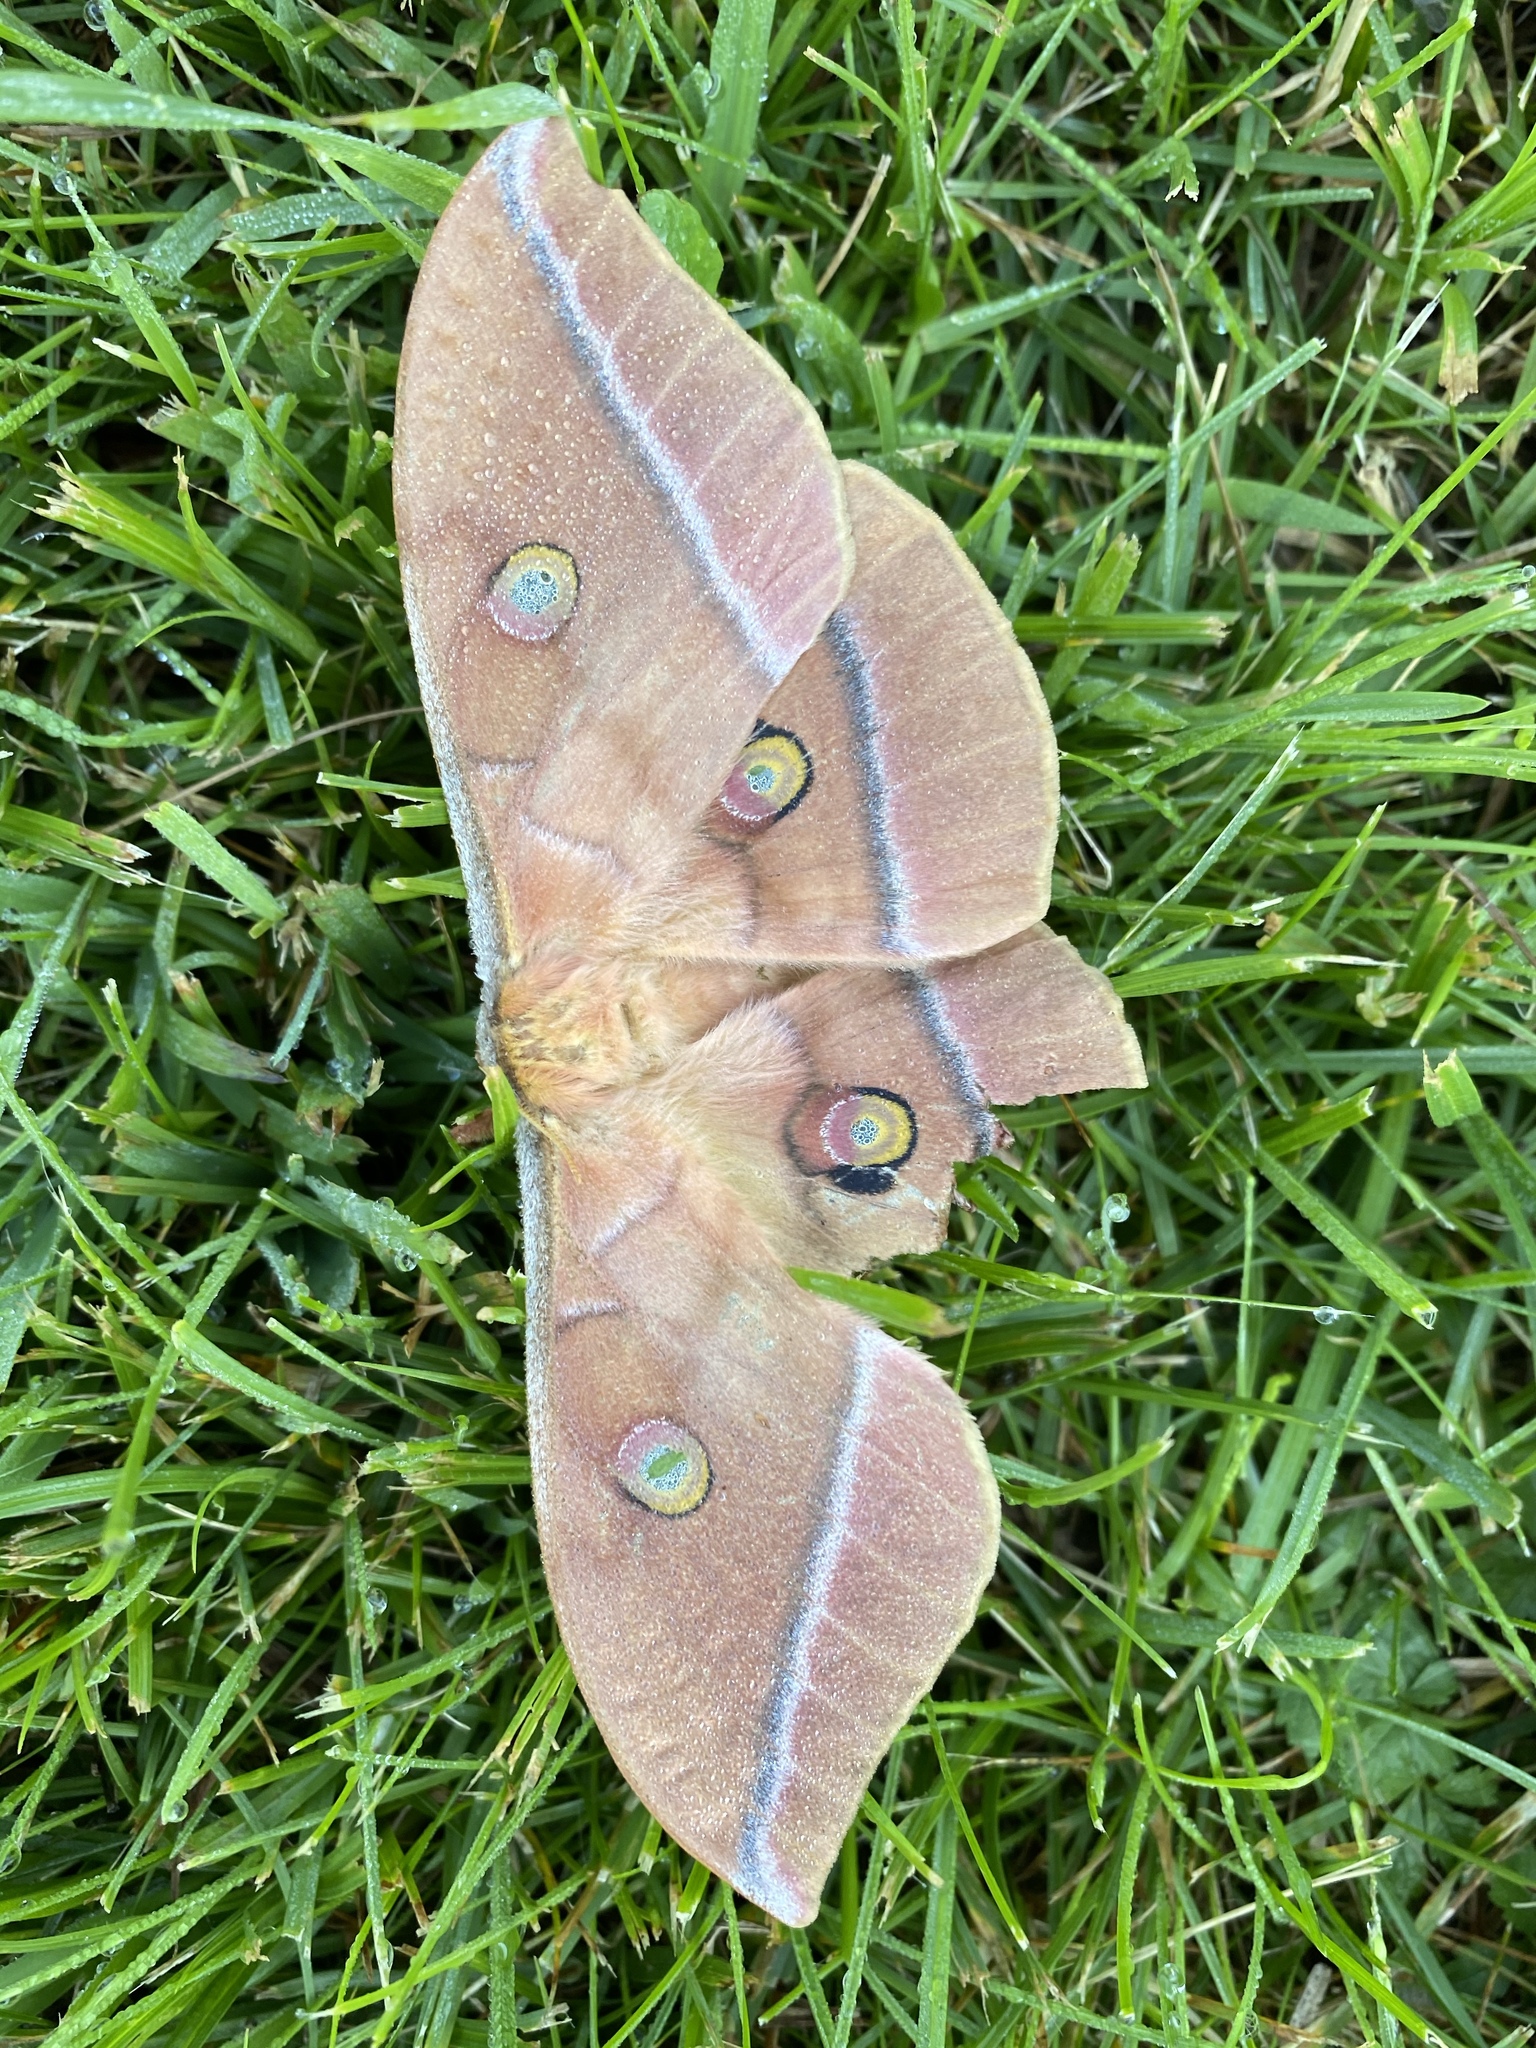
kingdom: Animalia
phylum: Arthropoda
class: Insecta
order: Lepidoptera
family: Saturniidae
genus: Antheraea
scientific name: Antheraea yamamai
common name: Japanese oak silk moth
